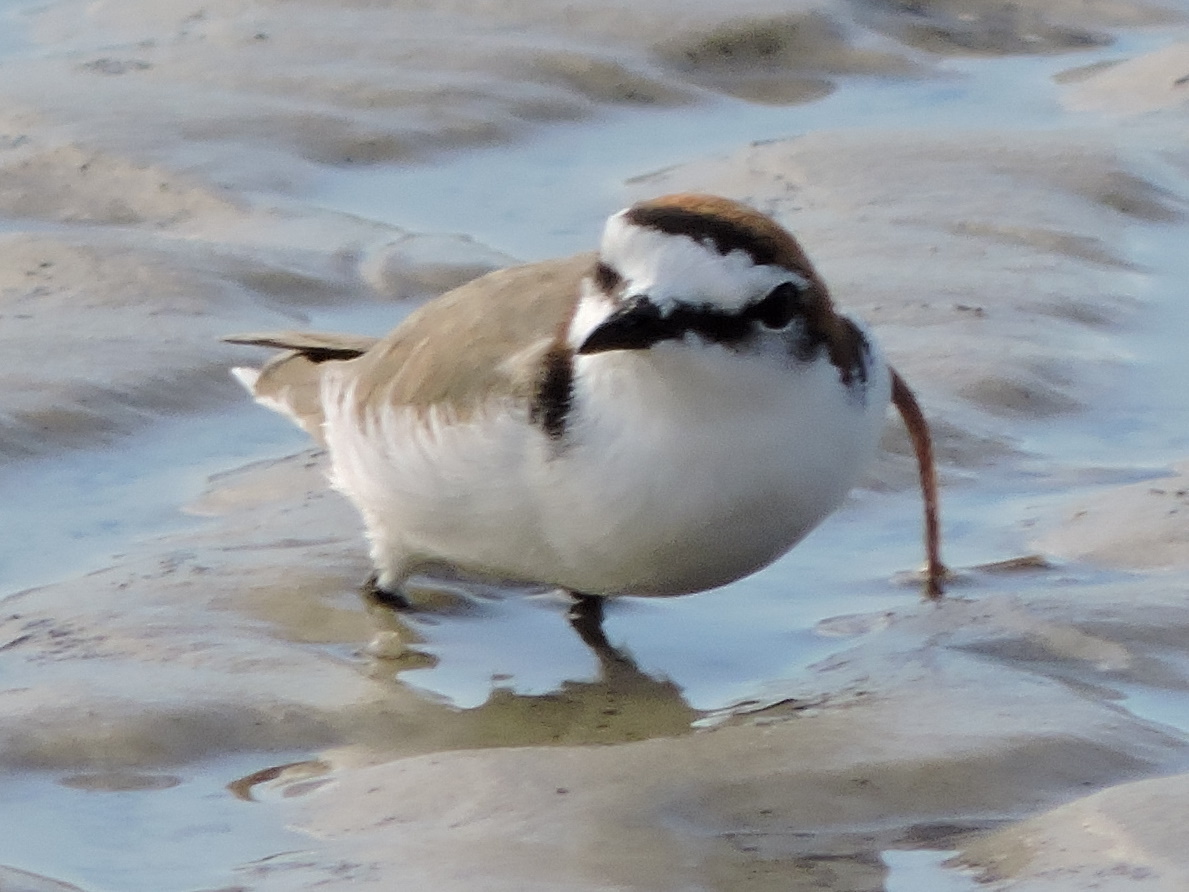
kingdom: Animalia
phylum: Chordata
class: Aves
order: Charadriiformes
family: Charadriidae
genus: Anarhynchus
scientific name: Anarhynchus
